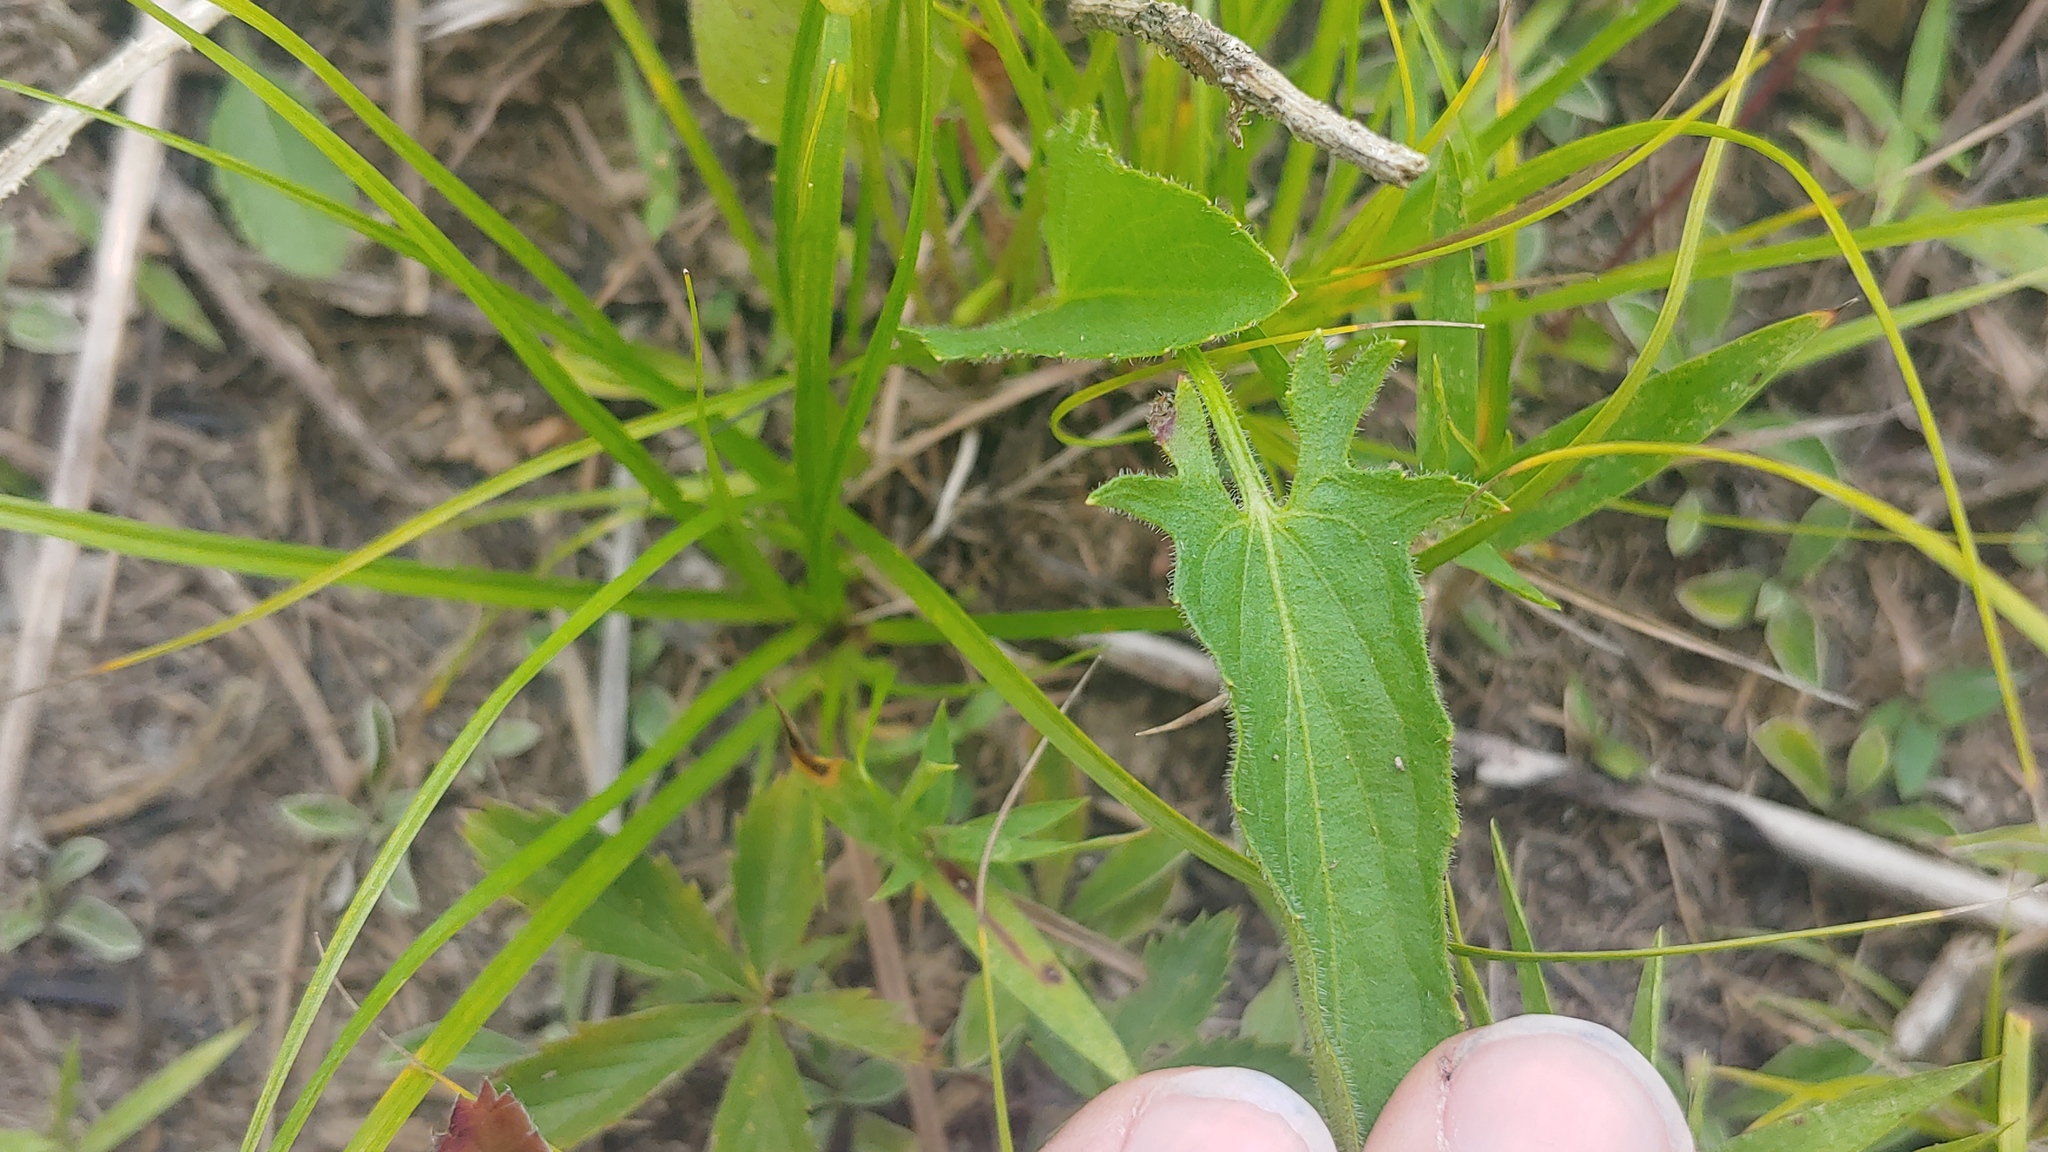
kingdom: Plantae
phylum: Tracheophyta
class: Magnoliopsida
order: Malpighiales
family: Violaceae
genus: Viola
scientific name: Viola sagittata
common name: Arrowhead violet
